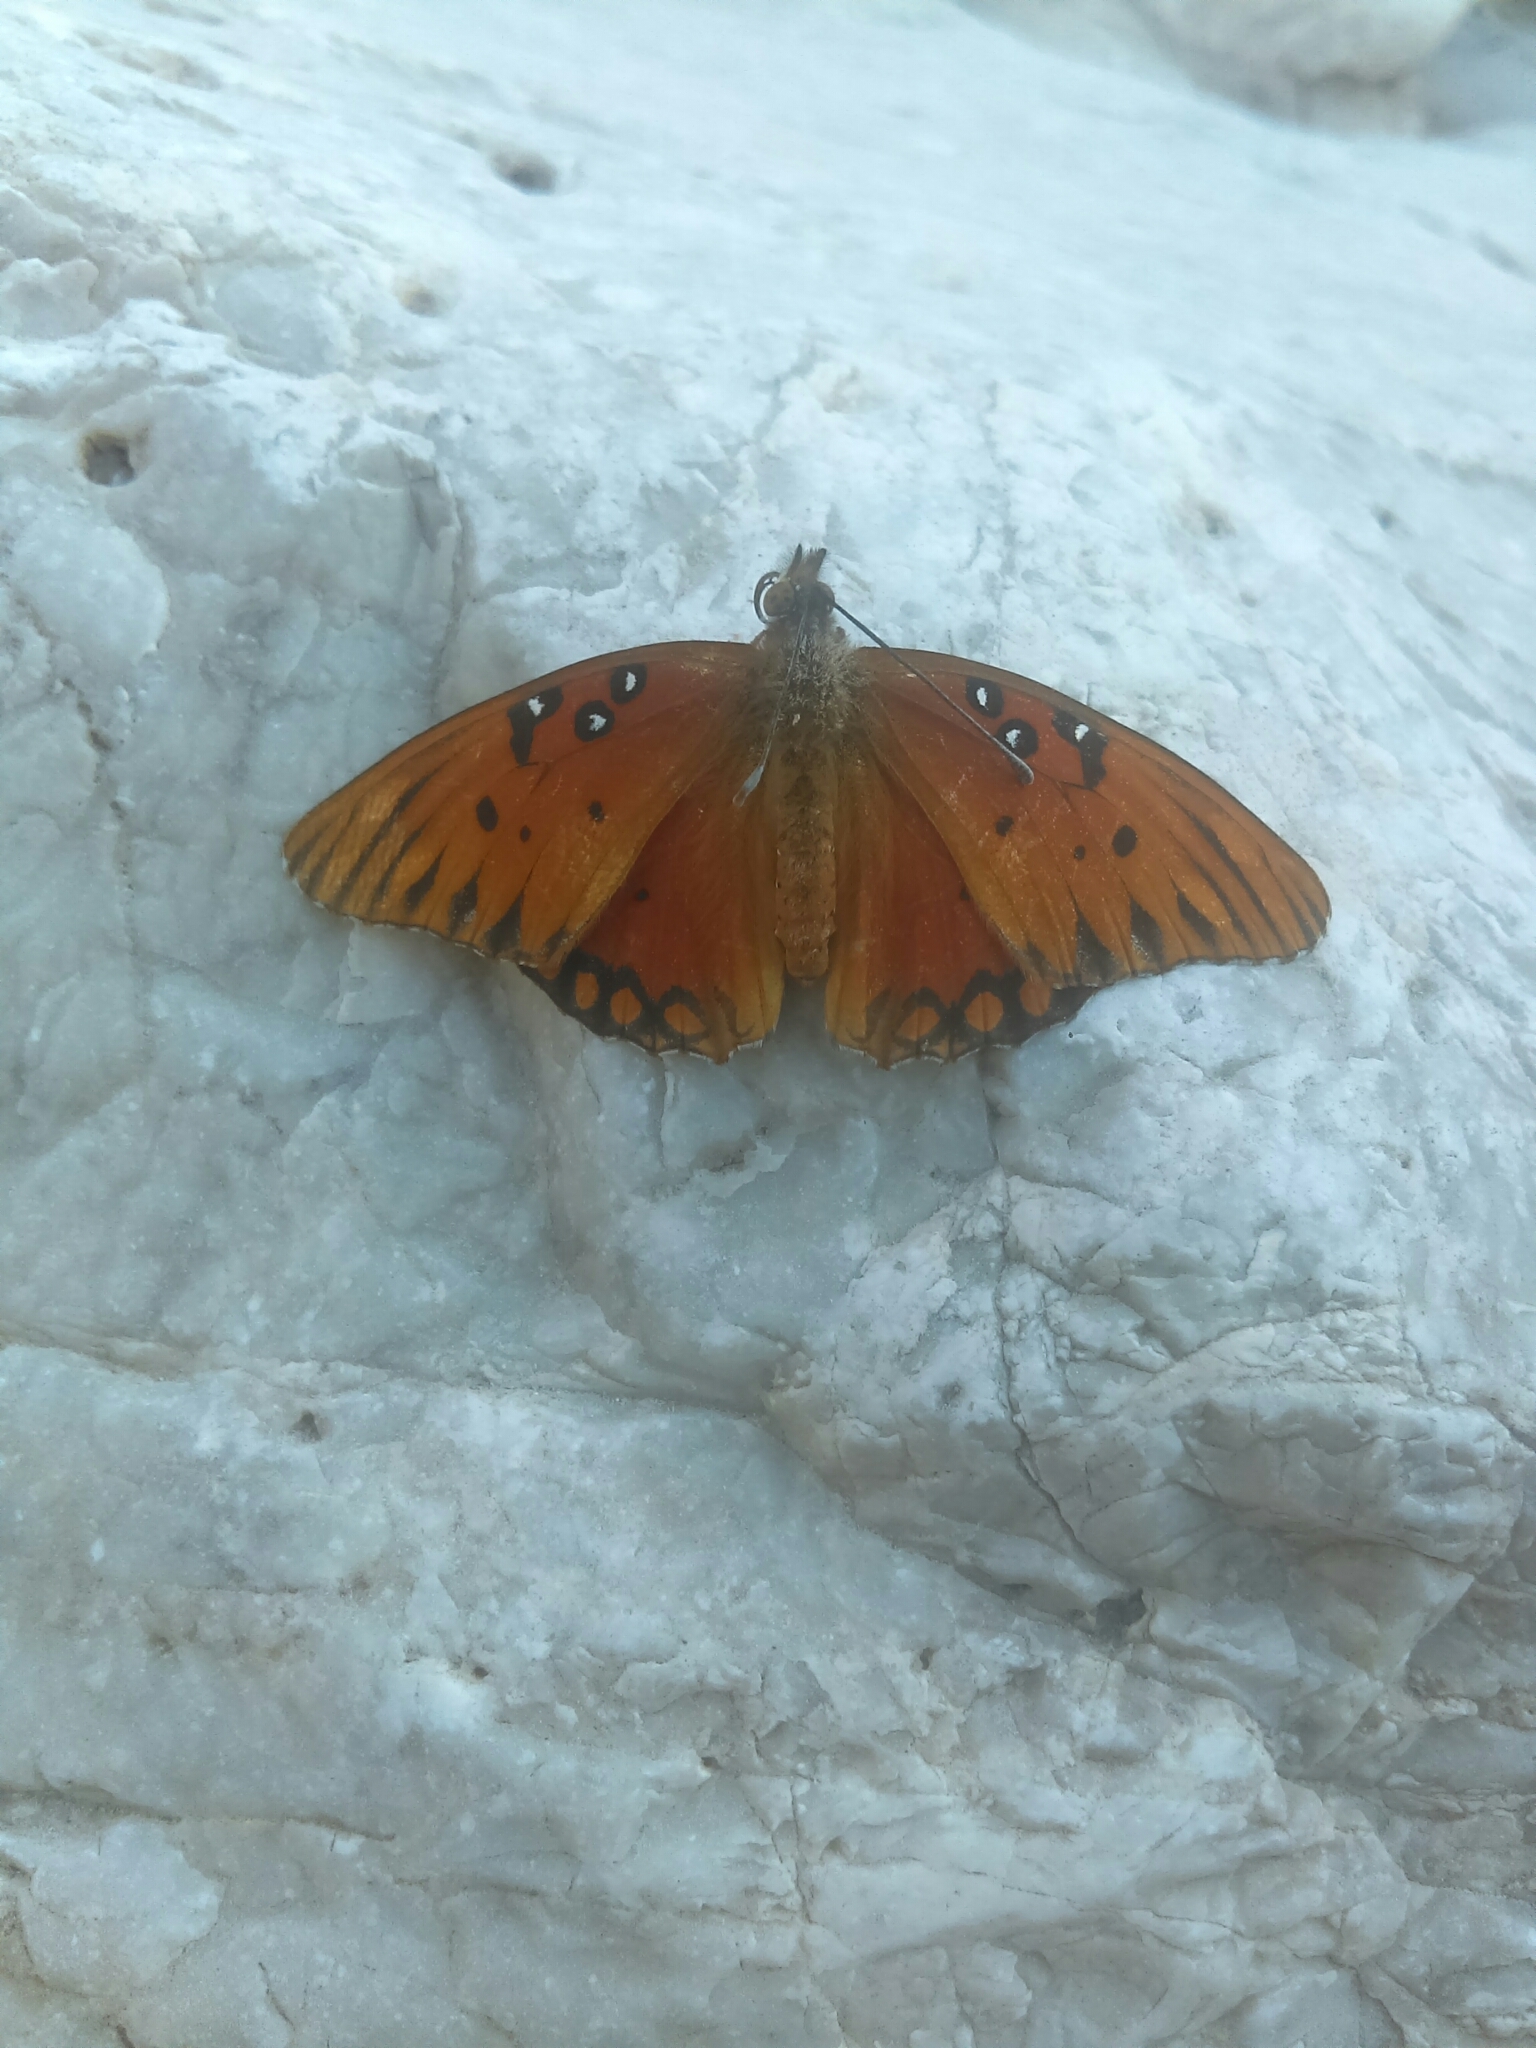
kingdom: Animalia
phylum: Arthropoda
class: Insecta
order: Lepidoptera
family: Nymphalidae
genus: Dione
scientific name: Dione vanillae
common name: Gulf fritillary
